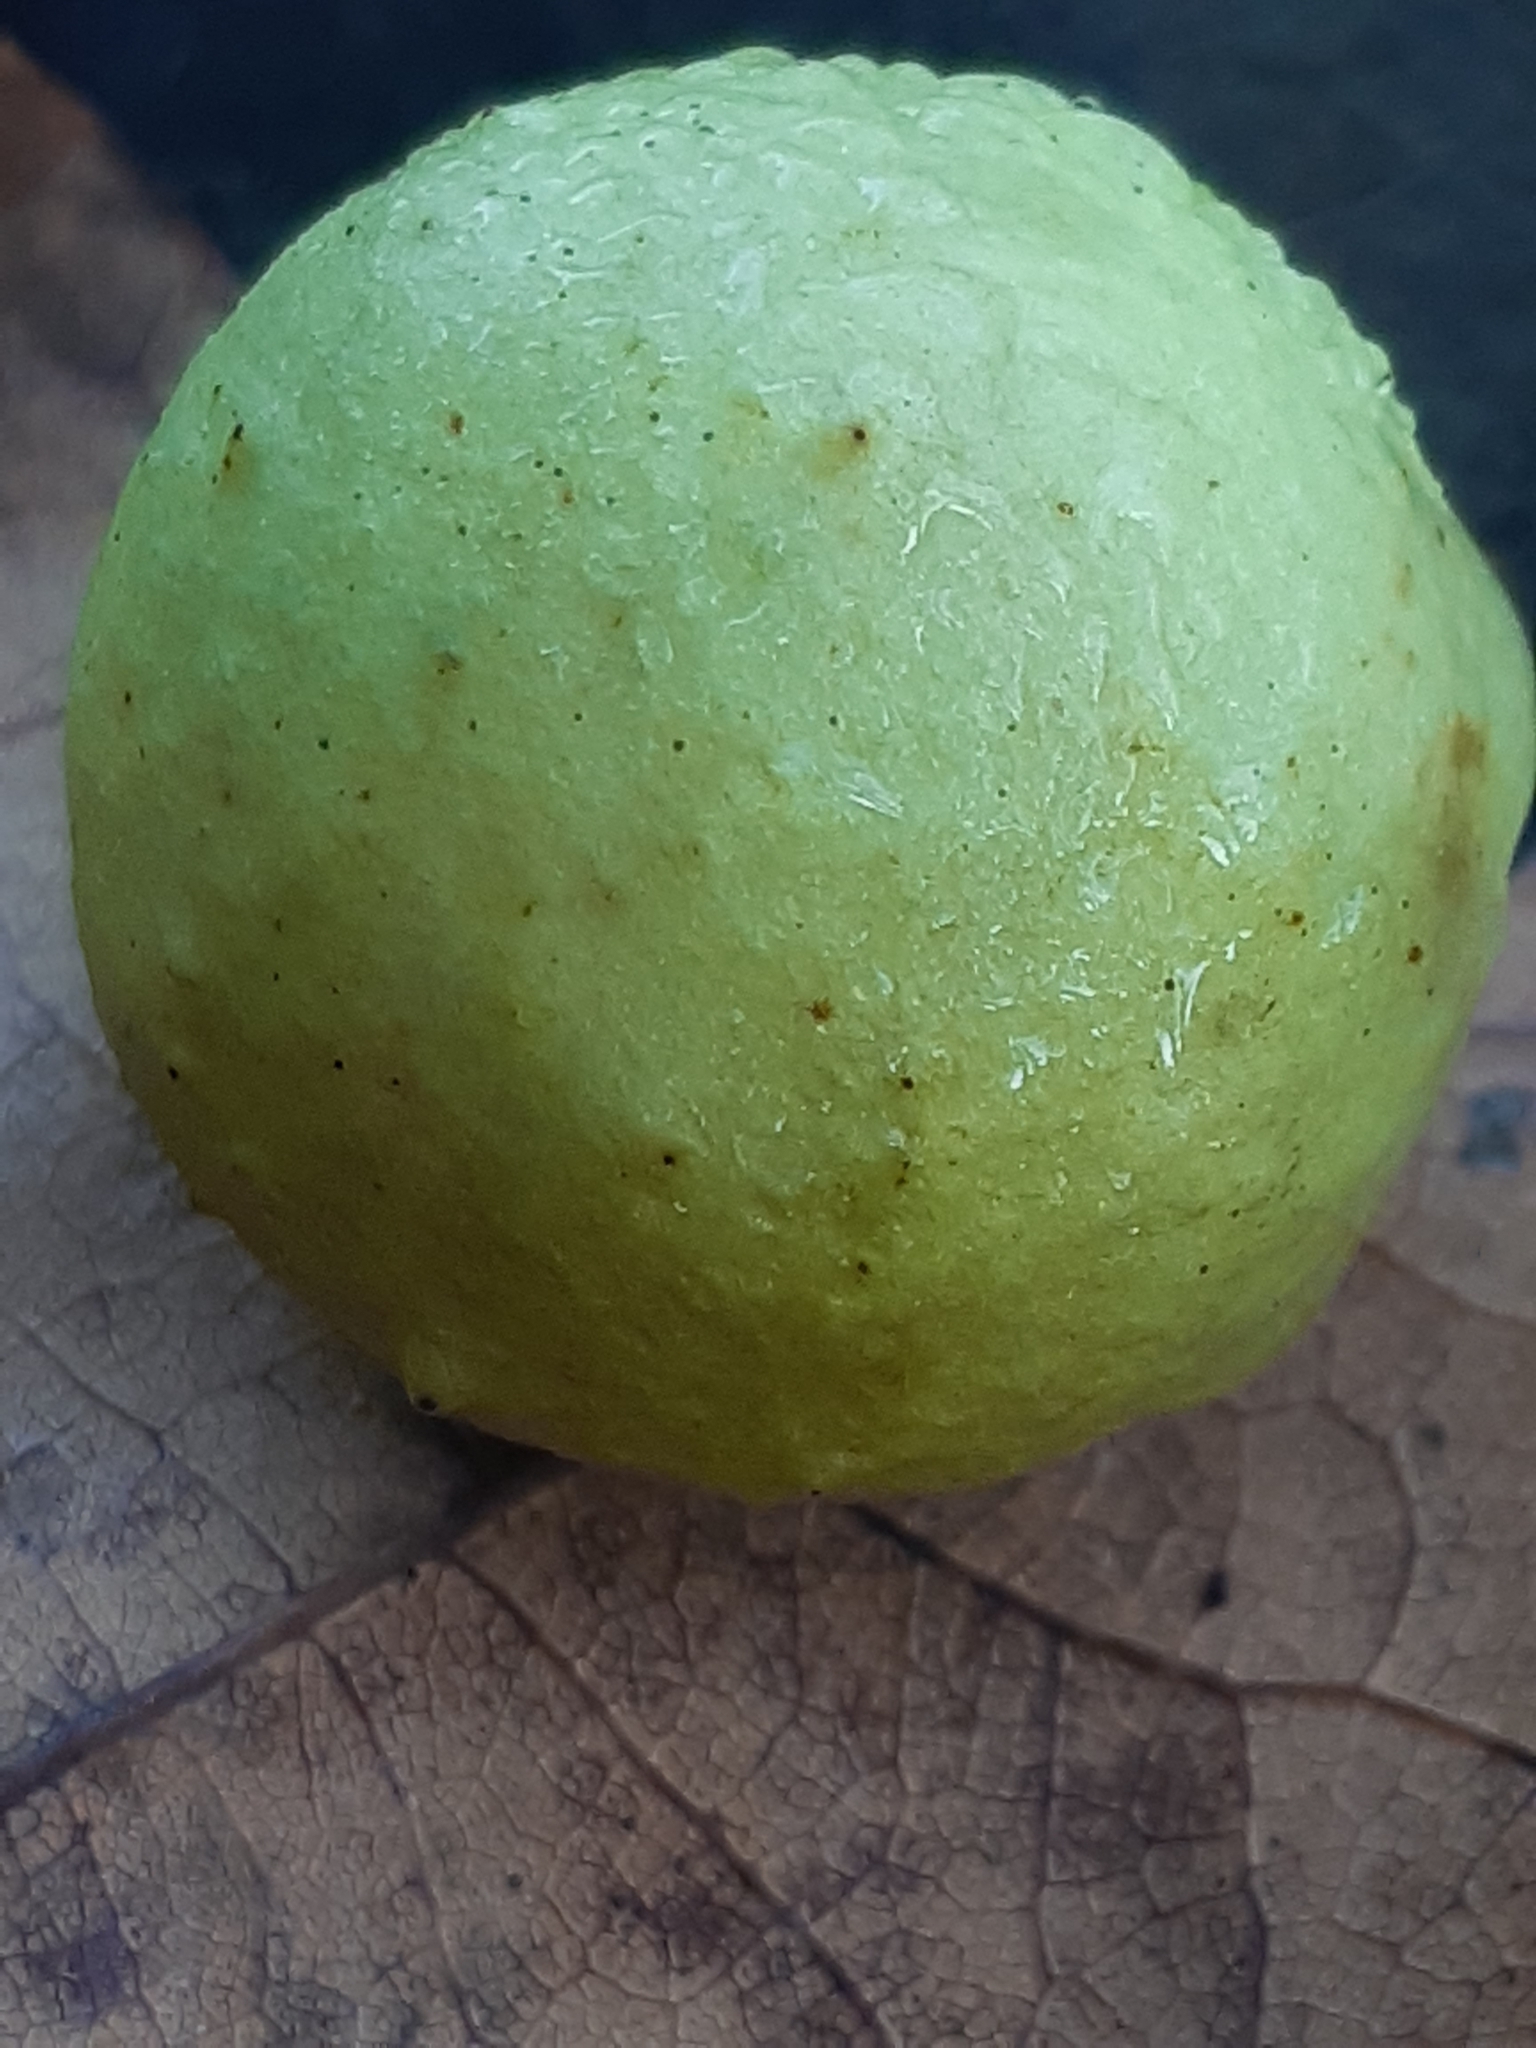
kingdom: Animalia
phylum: Arthropoda
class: Insecta
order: Hymenoptera
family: Cynipidae
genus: Cynips
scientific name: Cynips quercusfolii
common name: Cherry gall
